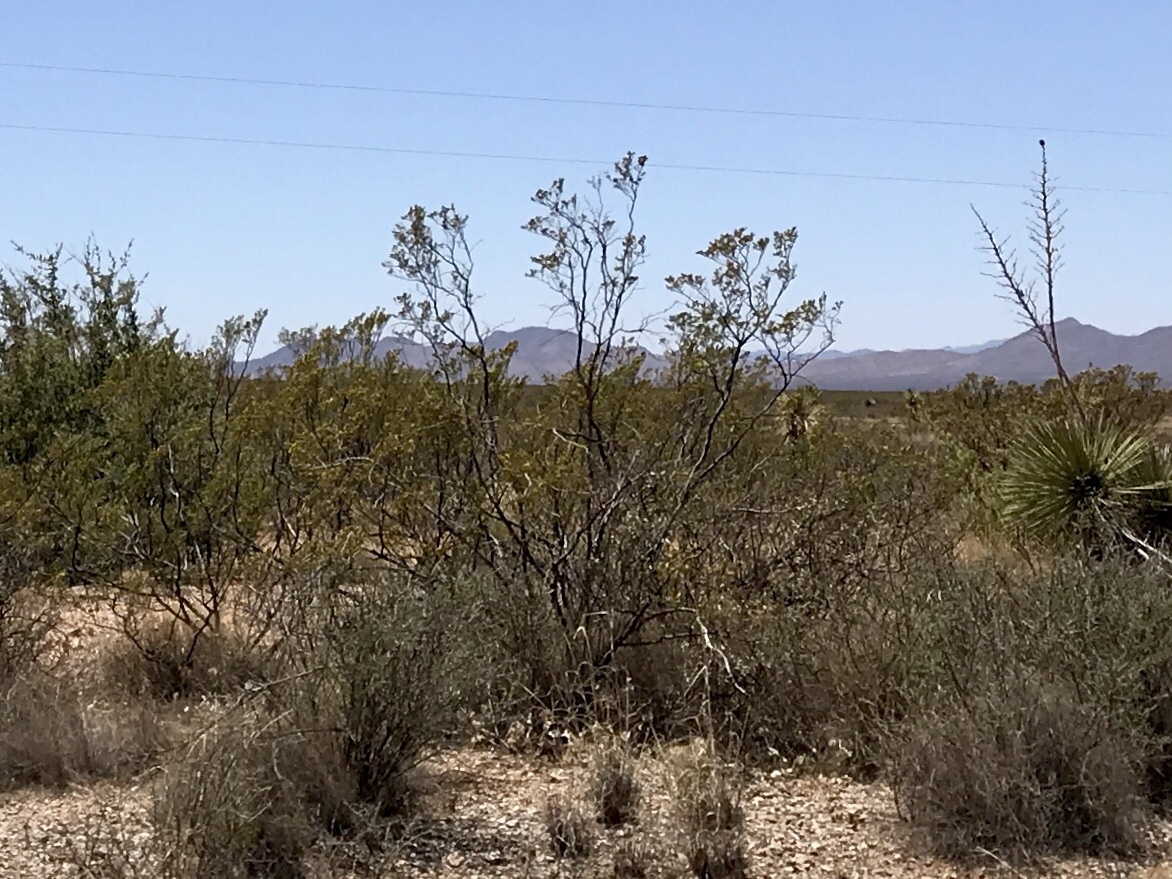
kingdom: Plantae
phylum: Tracheophyta
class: Magnoliopsida
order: Zygophyllales
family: Zygophyllaceae
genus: Larrea
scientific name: Larrea tridentata
